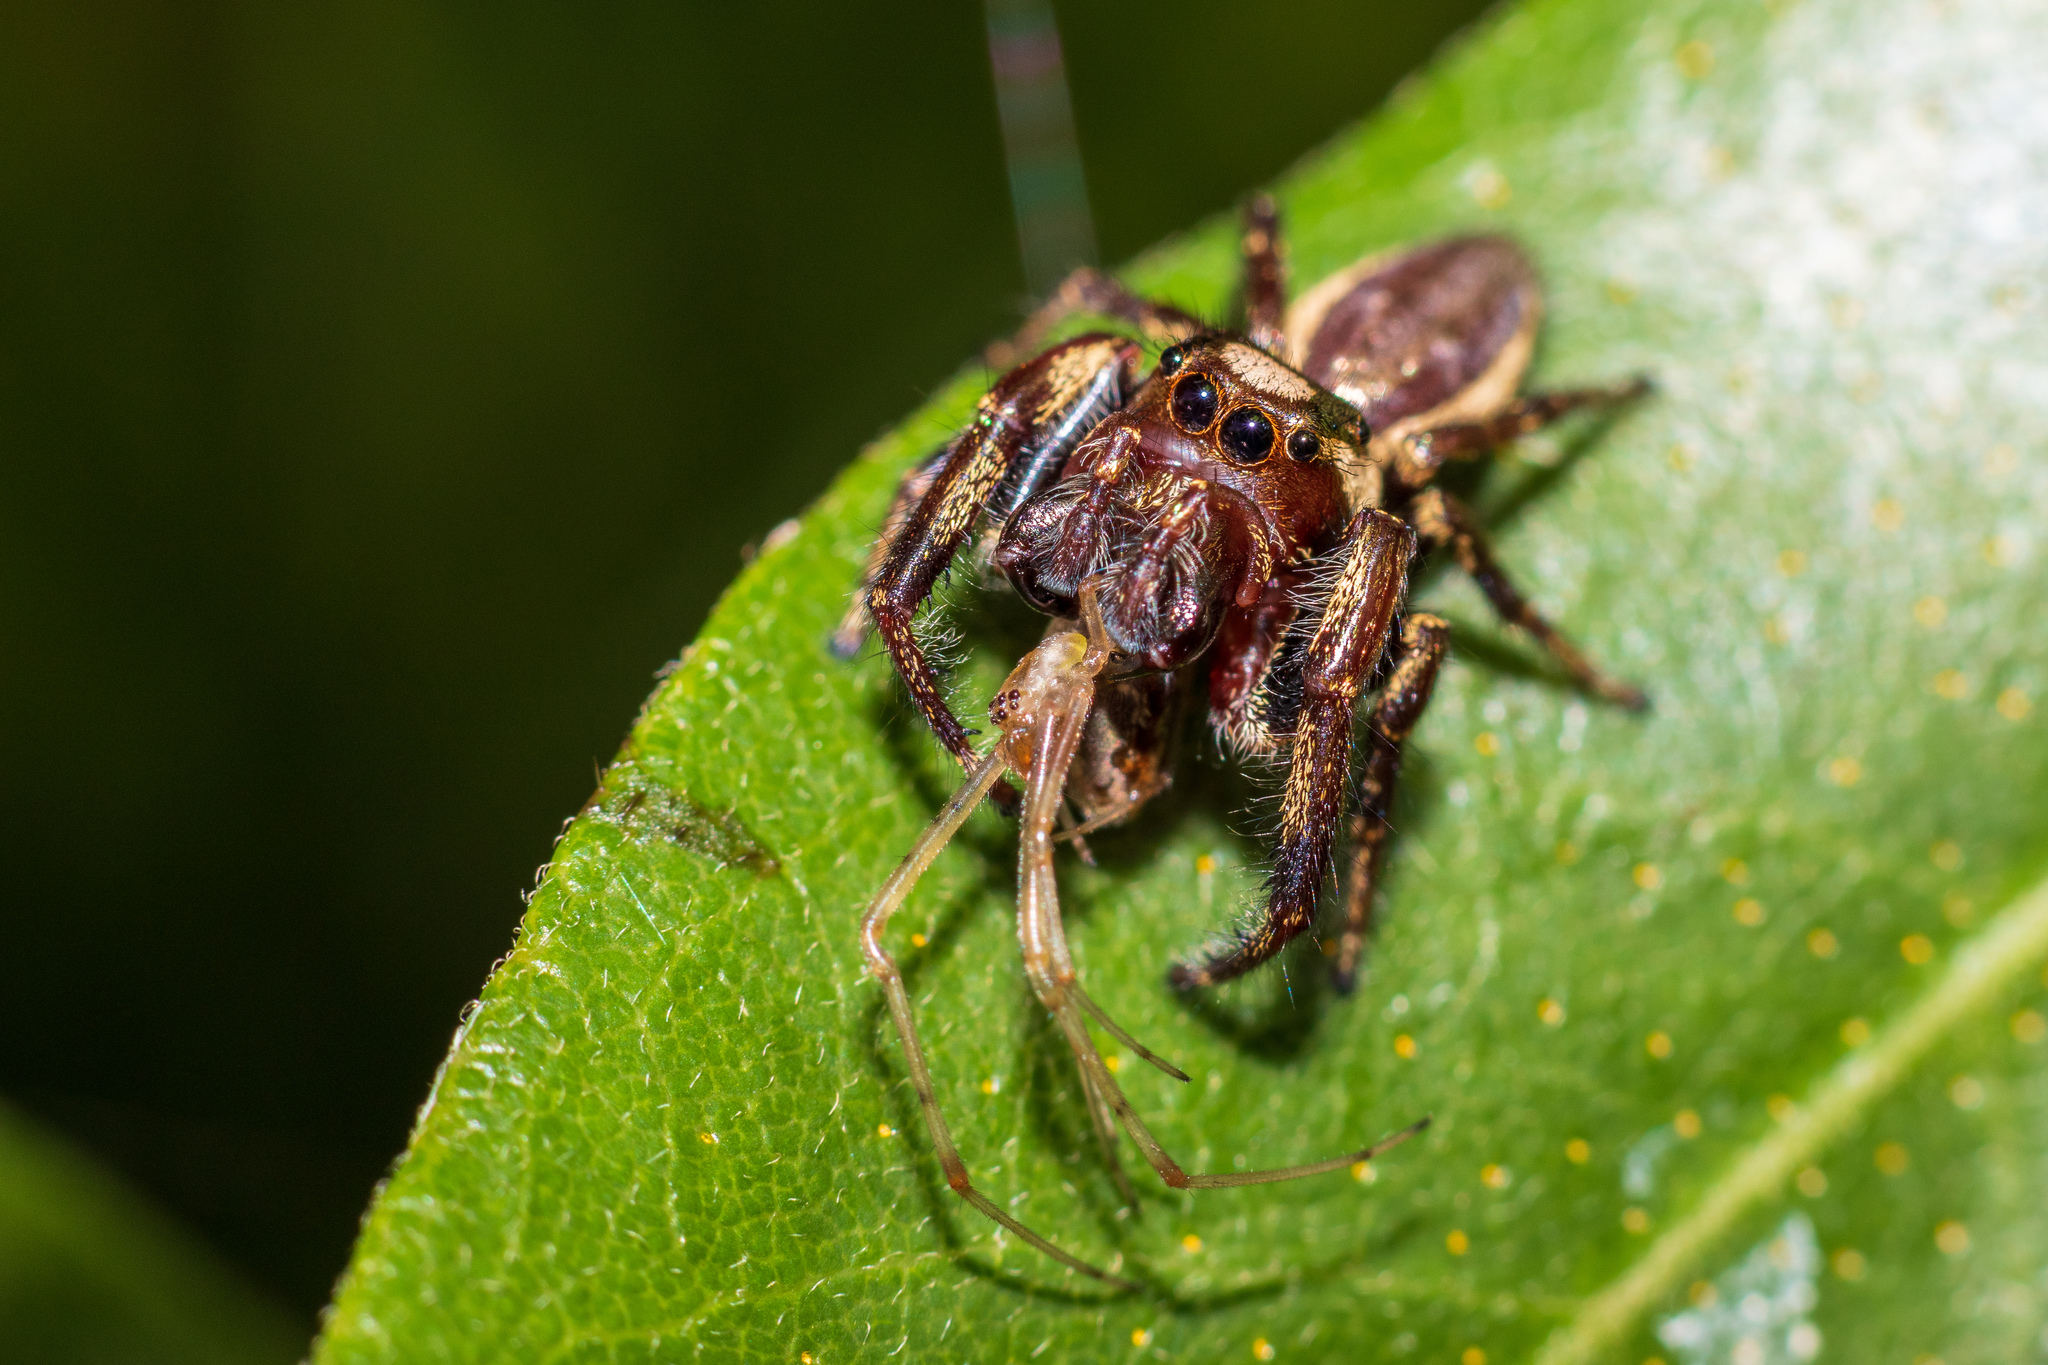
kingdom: Animalia
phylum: Arthropoda
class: Arachnida
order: Araneae
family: Salticidae
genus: Eris
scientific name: Eris militaris
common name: Bronze jumper
